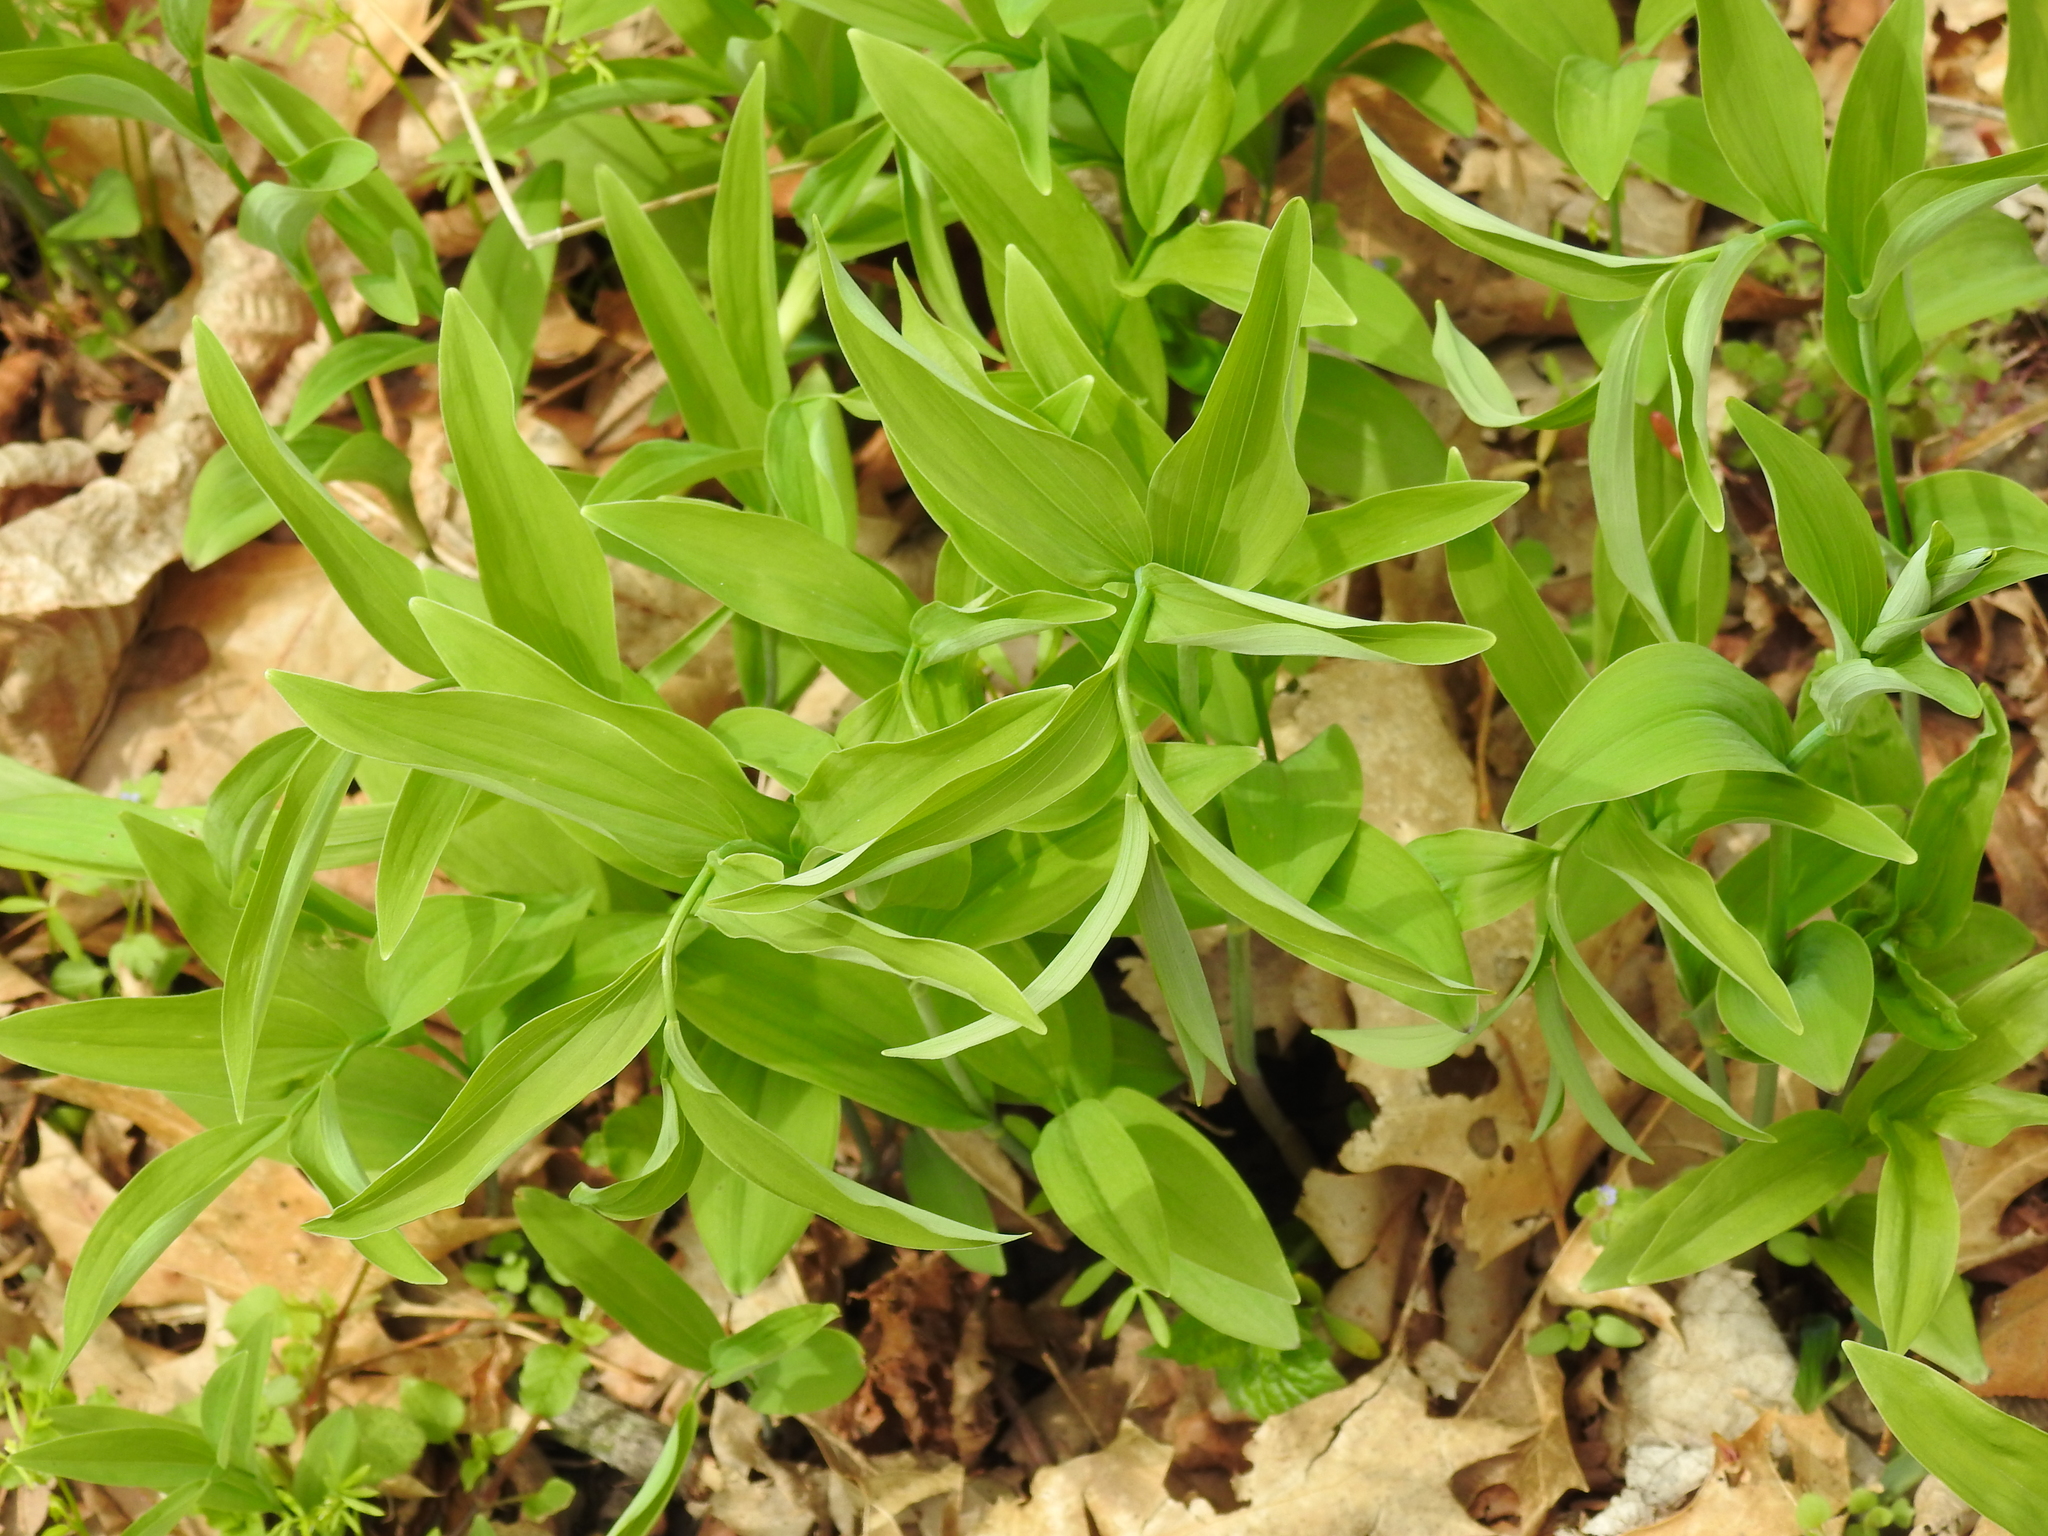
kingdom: Plantae
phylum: Tracheophyta
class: Liliopsida
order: Asparagales
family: Asparagaceae
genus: Polygonatum
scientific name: Polygonatum biflorum
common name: American solomon's-seal
